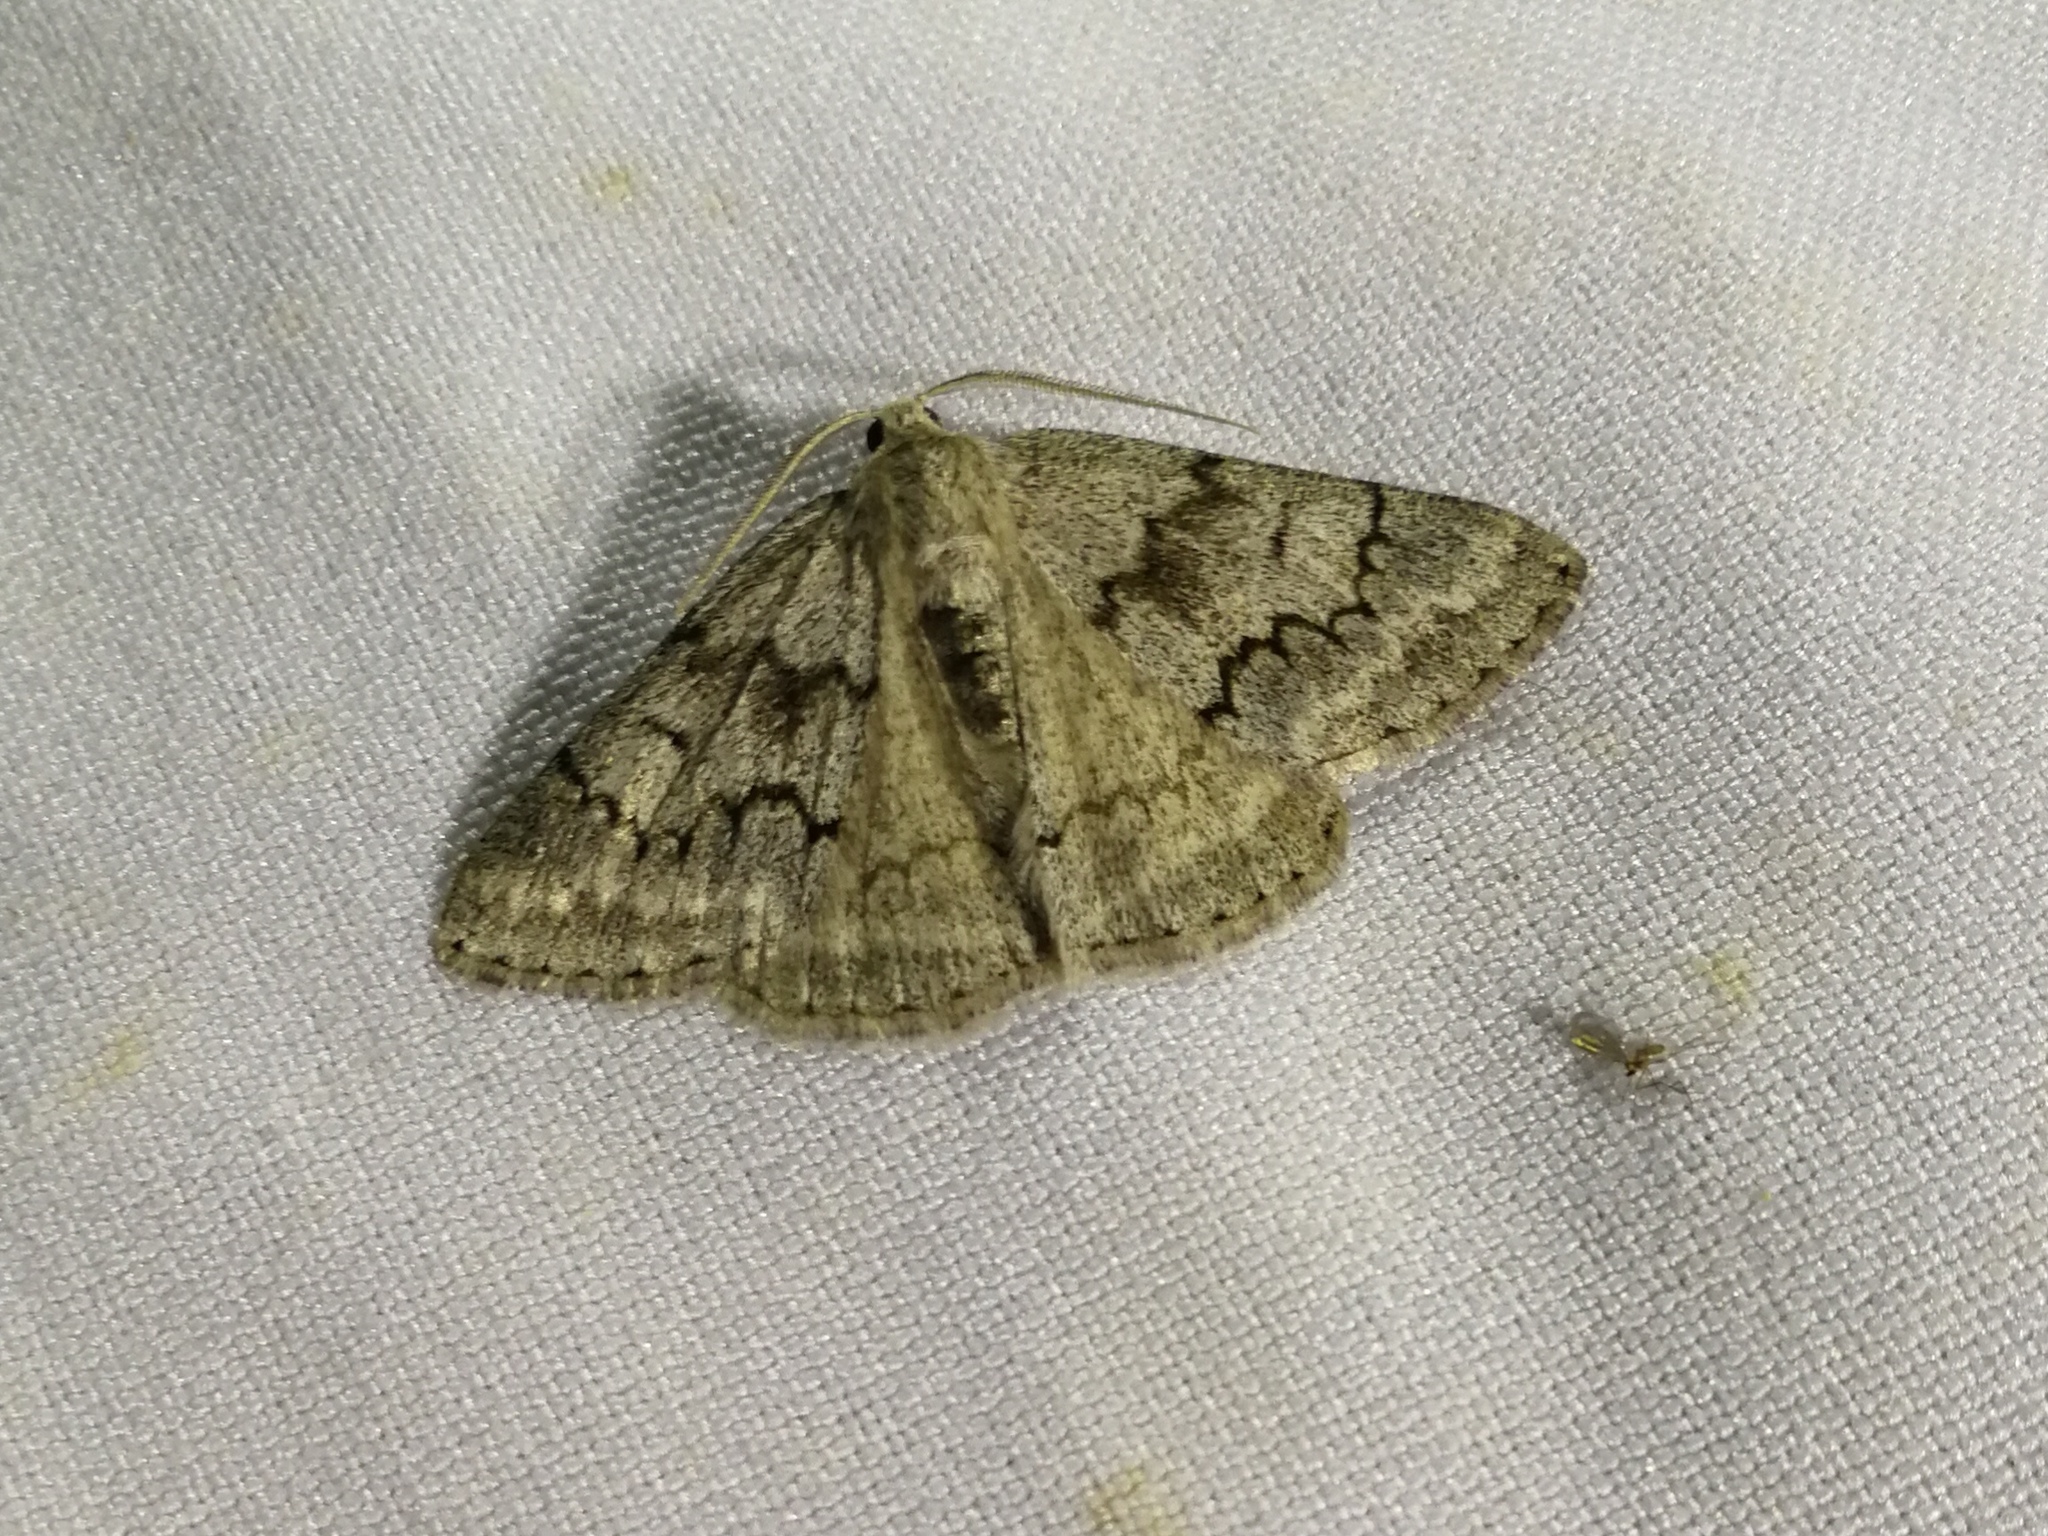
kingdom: Animalia
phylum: Arthropoda
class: Insecta
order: Lepidoptera
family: Geometridae
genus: Pseudoterpna
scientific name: Pseudoterpna coronillaria
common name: Jersey emerald
